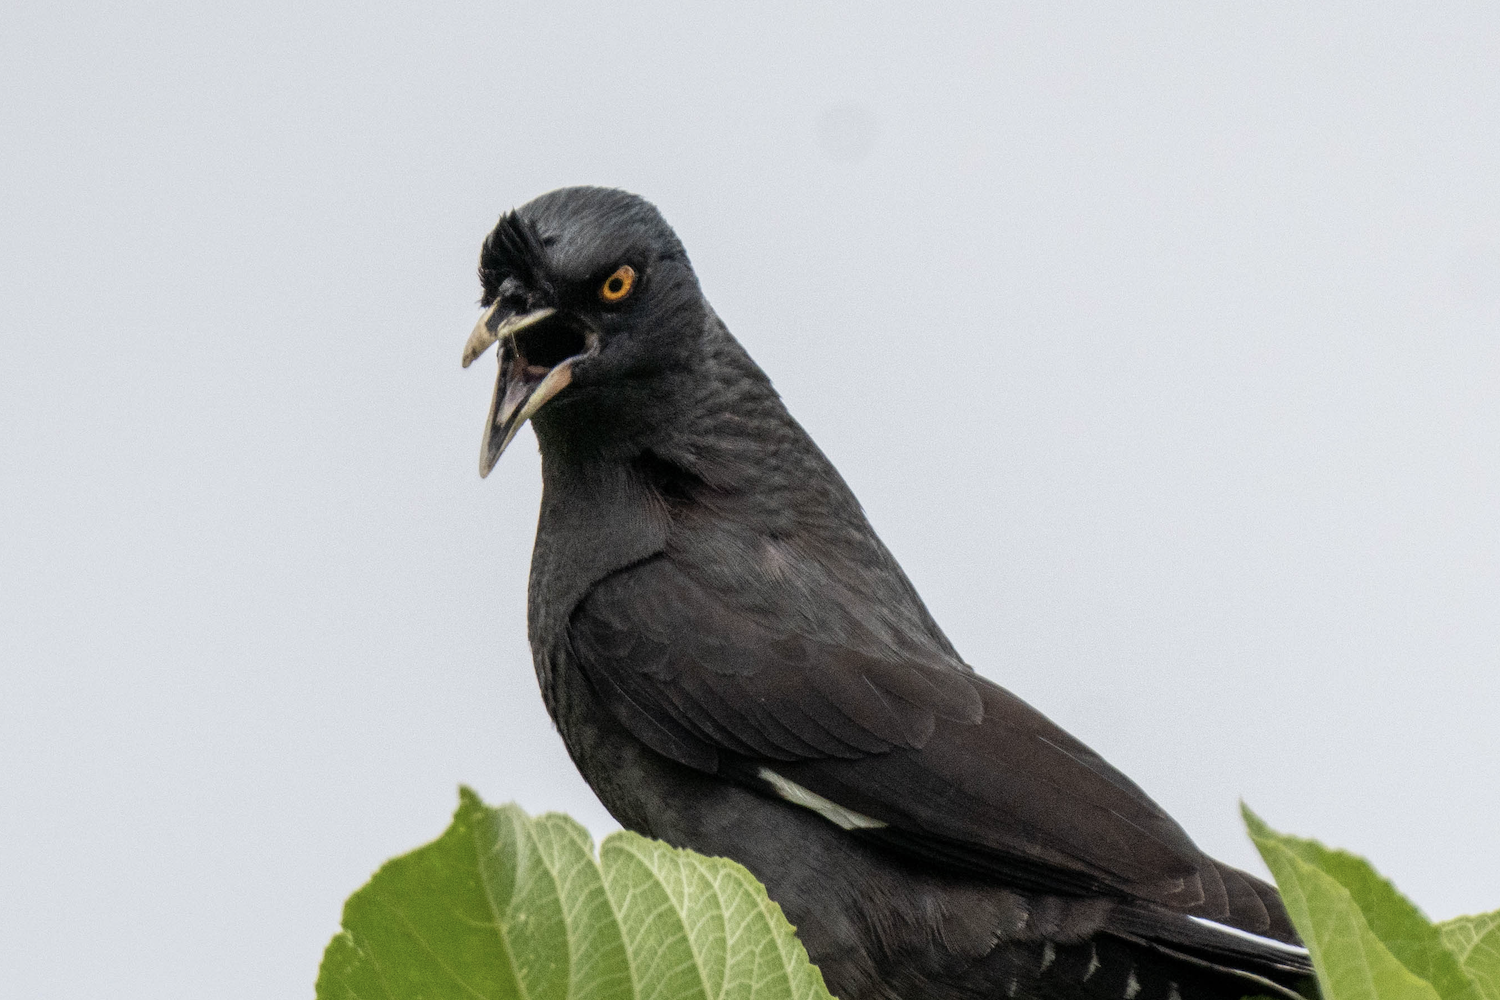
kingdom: Animalia
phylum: Chordata
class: Aves
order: Passeriformes
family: Sturnidae
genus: Acridotheres
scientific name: Acridotheres cristatellus
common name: Crested myna
